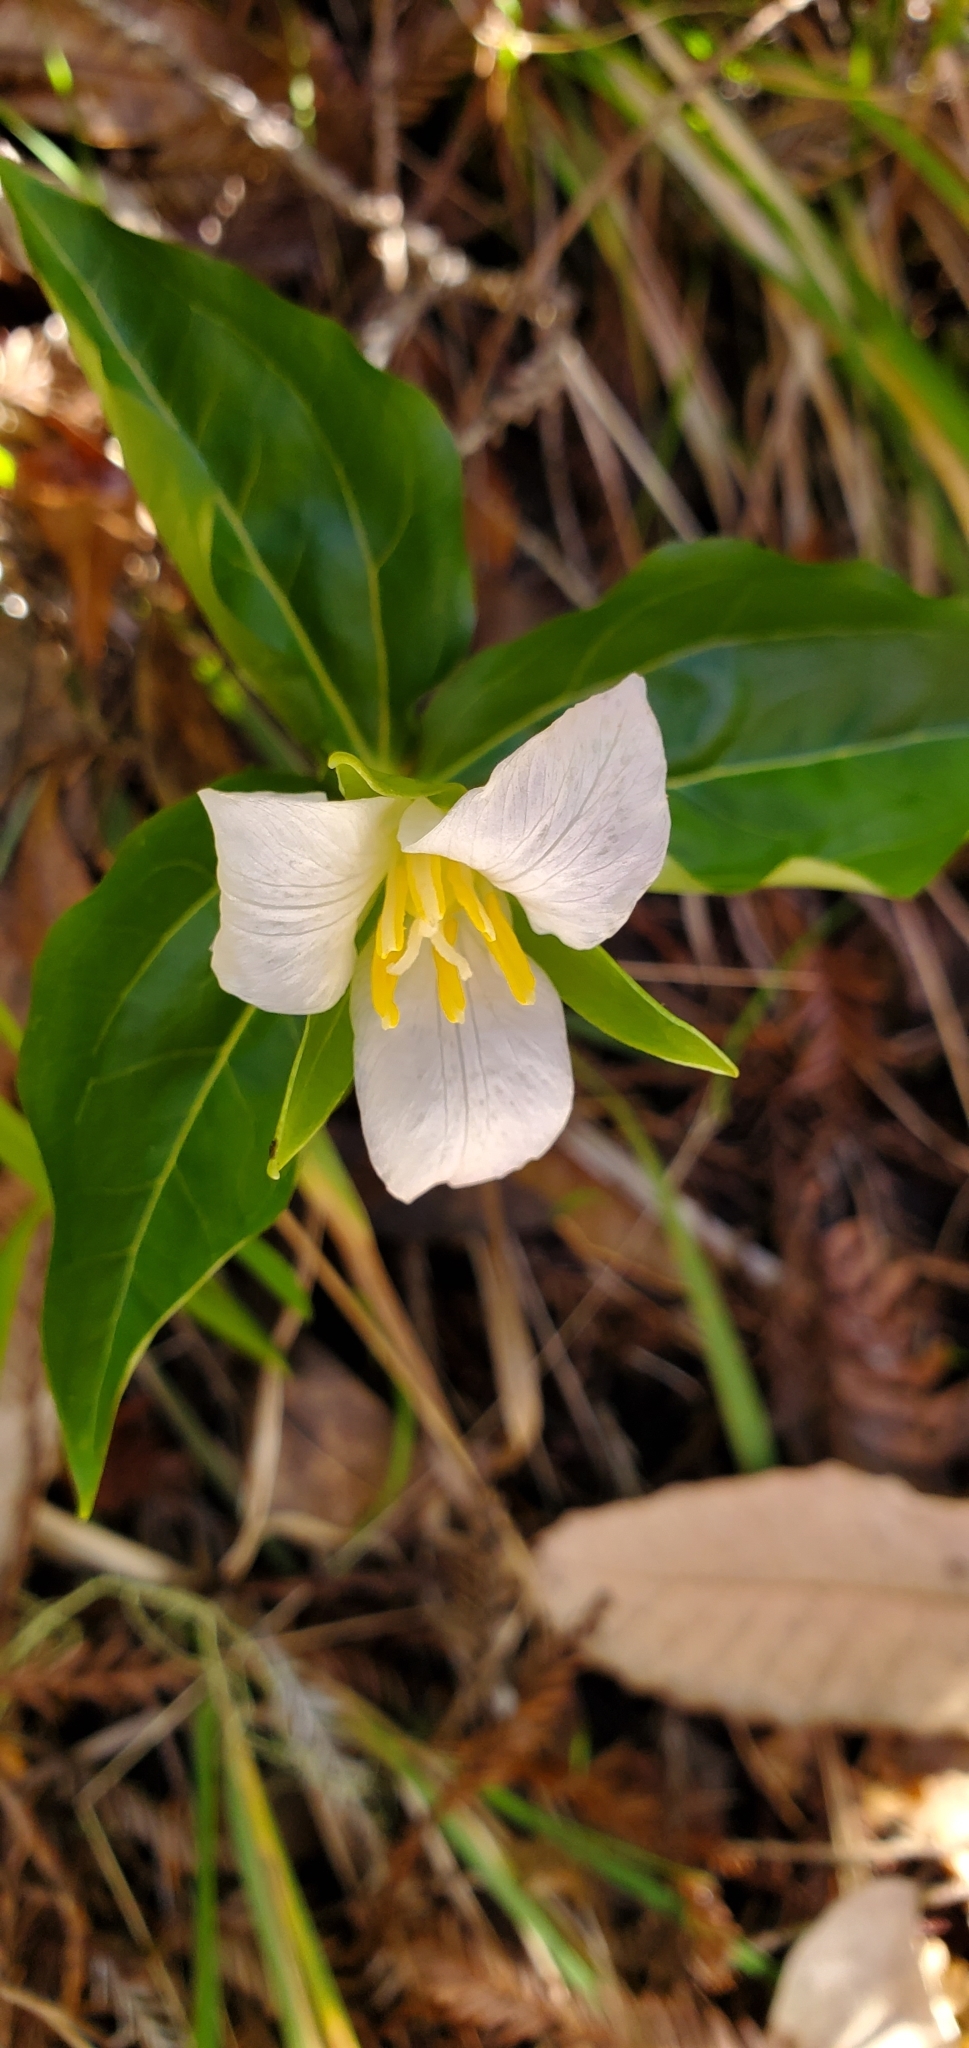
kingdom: Plantae
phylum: Tracheophyta
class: Liliopsida
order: Liliales
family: Melanthiaceae
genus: Trillium
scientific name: Trillium ovatum
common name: Pacific trillium
